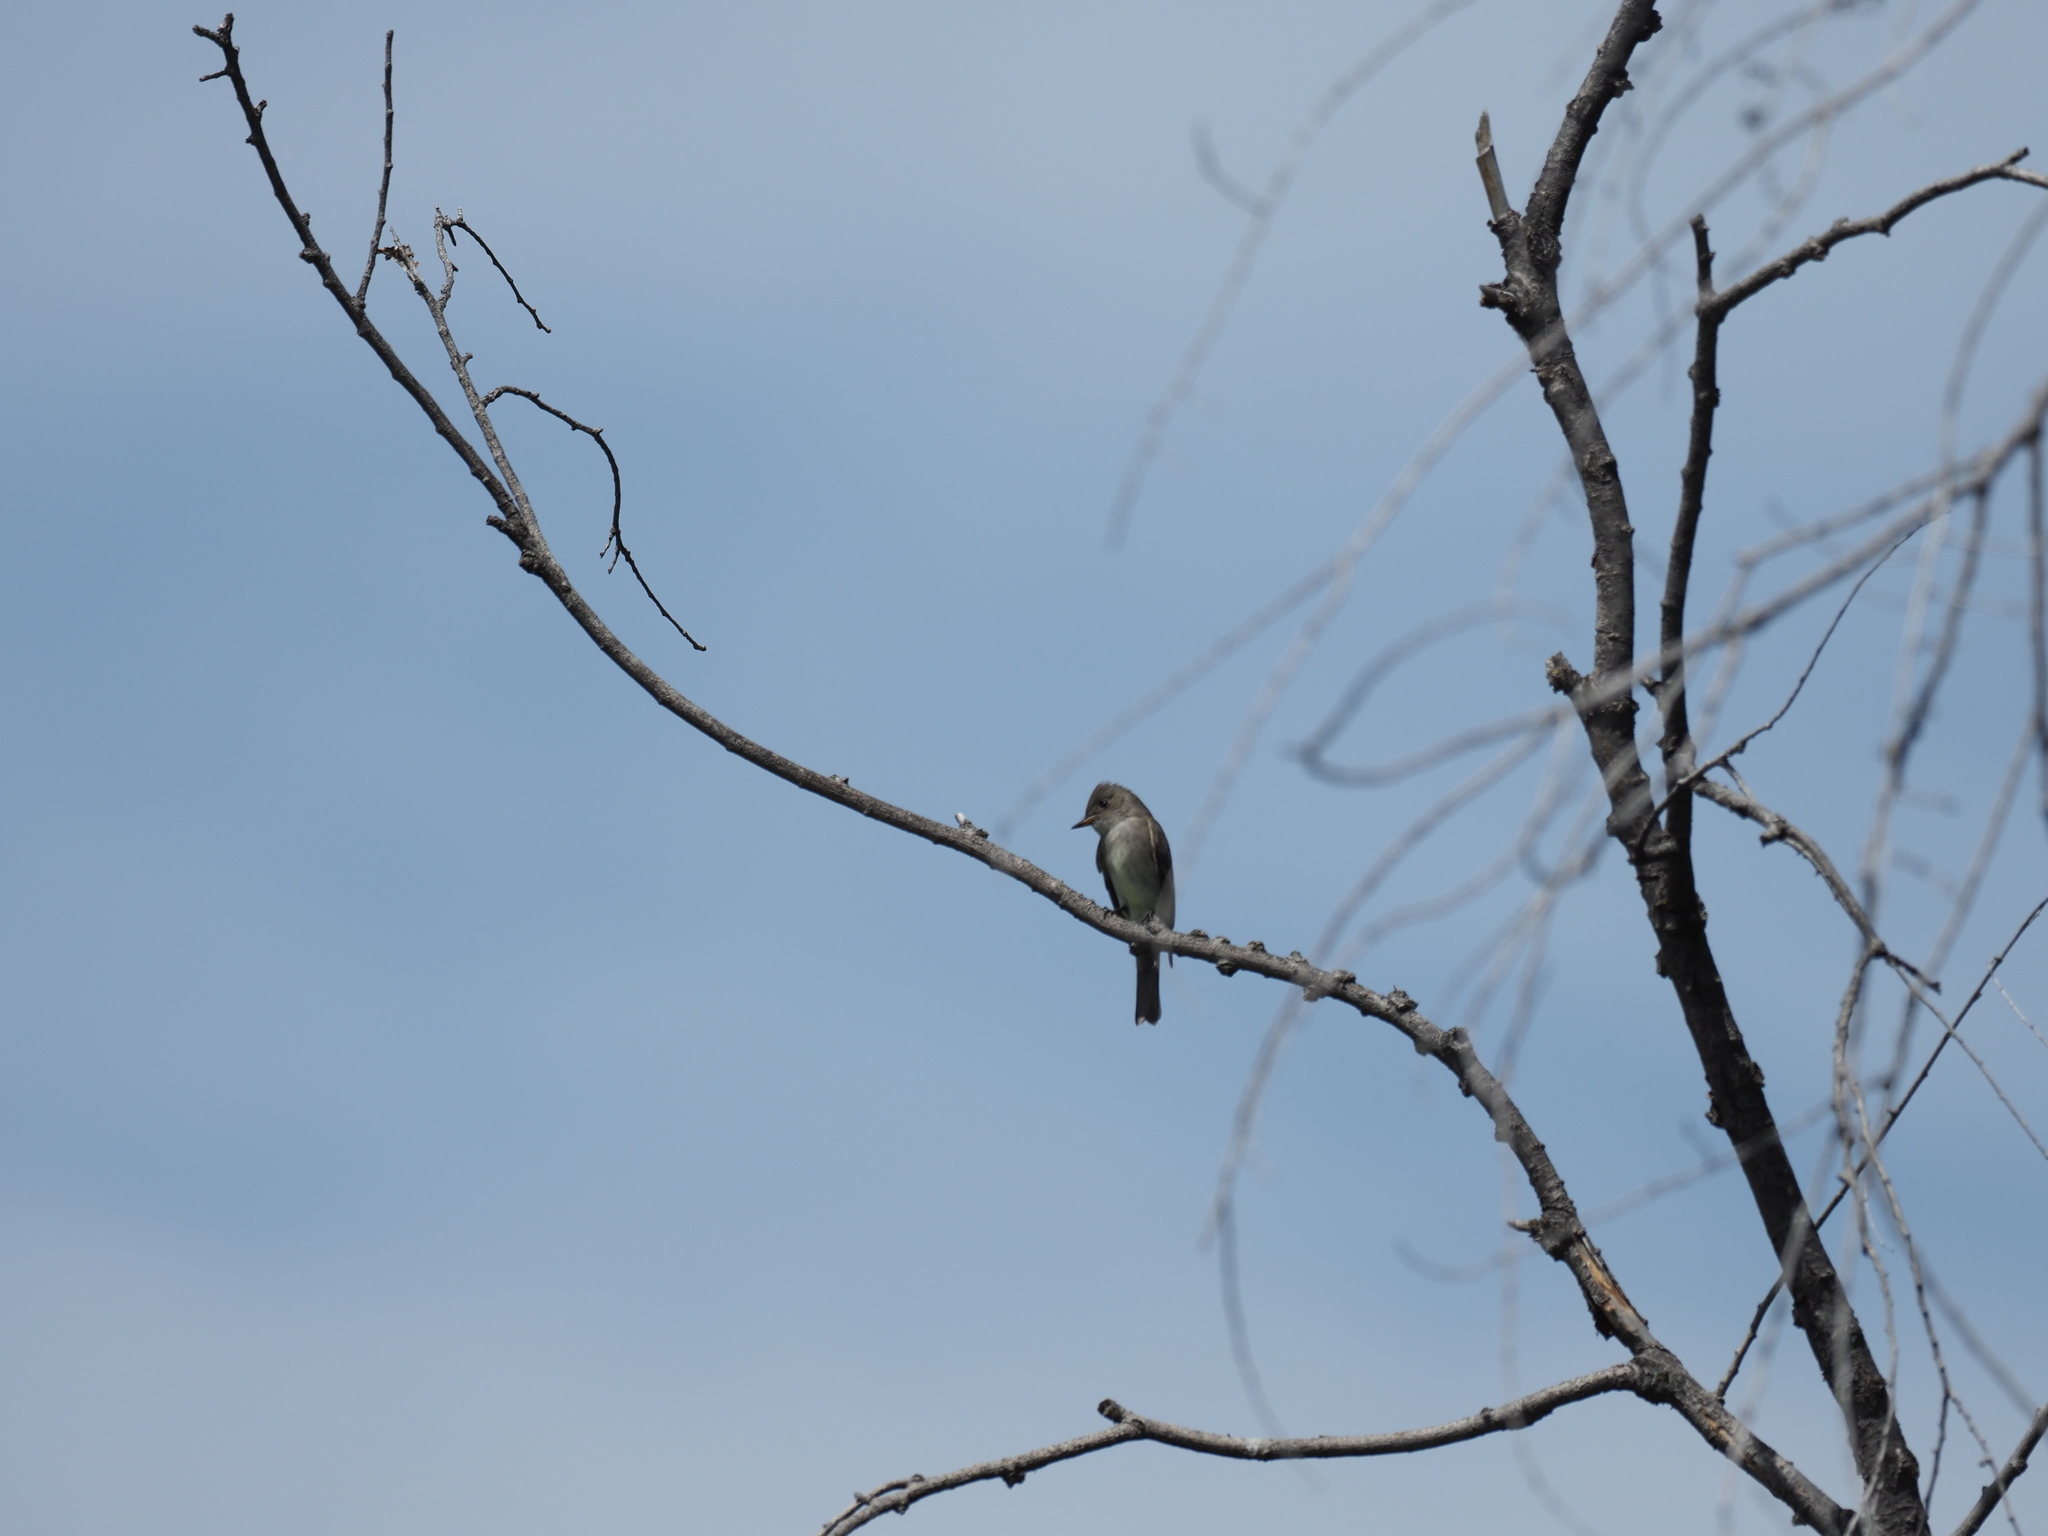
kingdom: Animalia
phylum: Chordata
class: Aves
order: Passeriformes
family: Tyrannidae
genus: Contopus
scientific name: Contopus sordidulus
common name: Western wood-pewee
